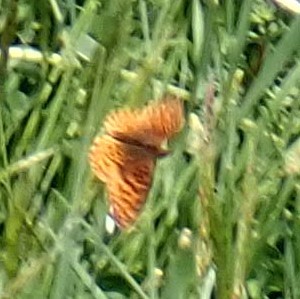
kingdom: Animalia
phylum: Arthropoda
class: Insecta
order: Lepidoptera
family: Nymphalidae
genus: Clossiana
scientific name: Clossiana toddi
